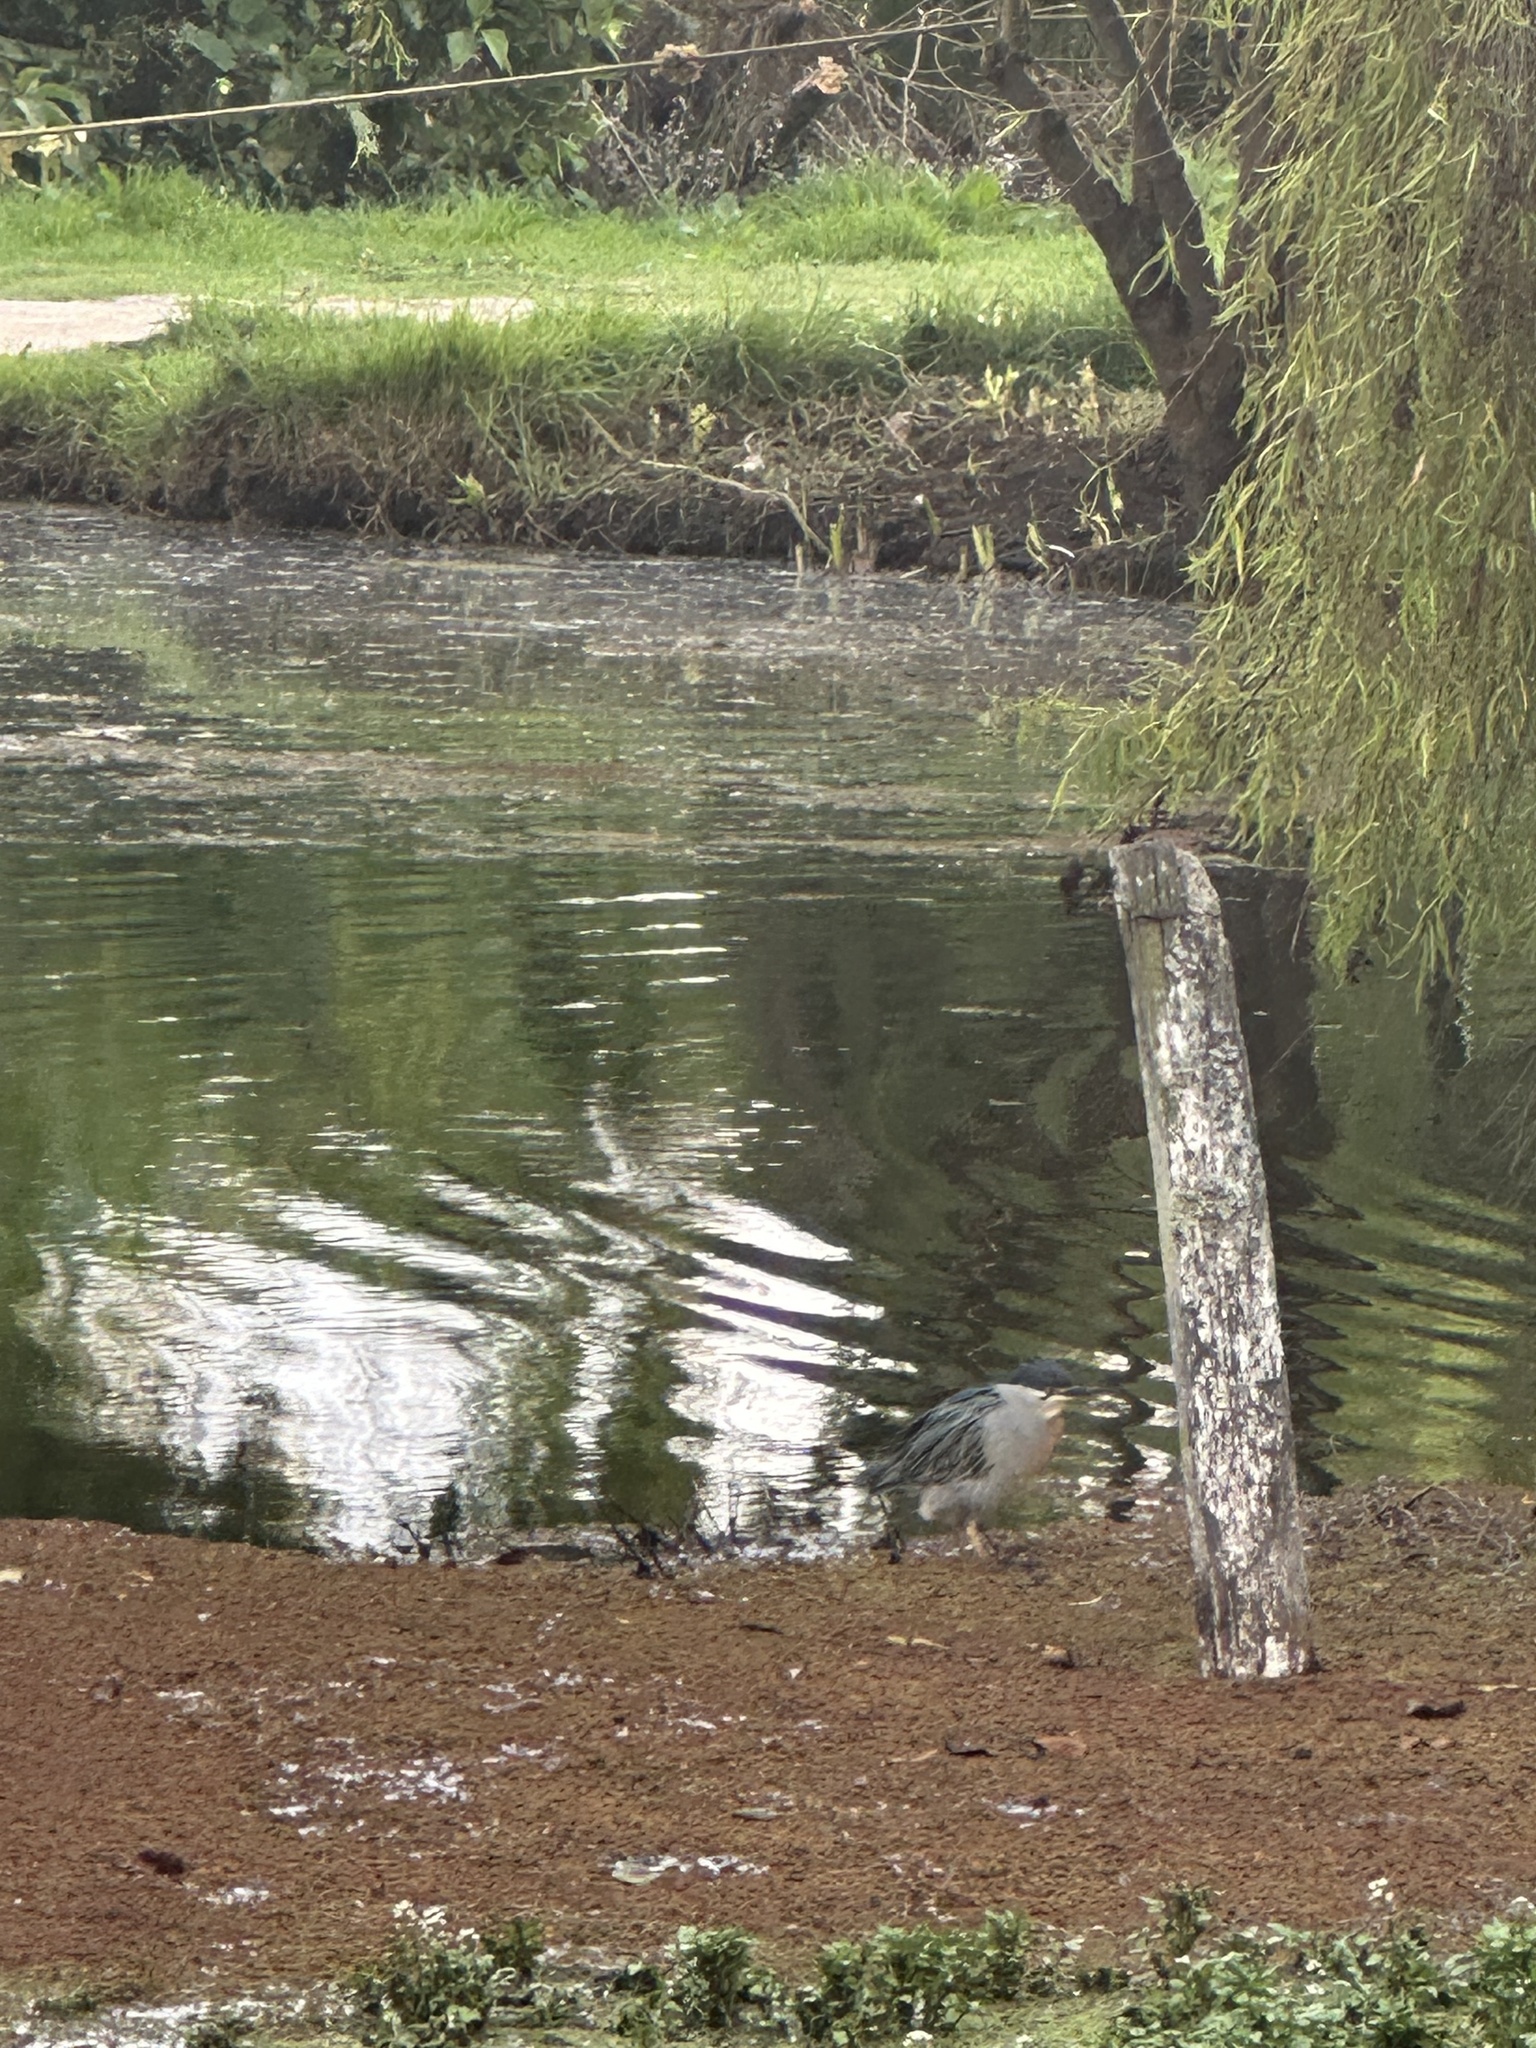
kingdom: Animalia
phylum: Chordata
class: Aves
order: Pelecaniformes
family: Ardeidae
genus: Butorides
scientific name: Butorides striata
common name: Striated heron
